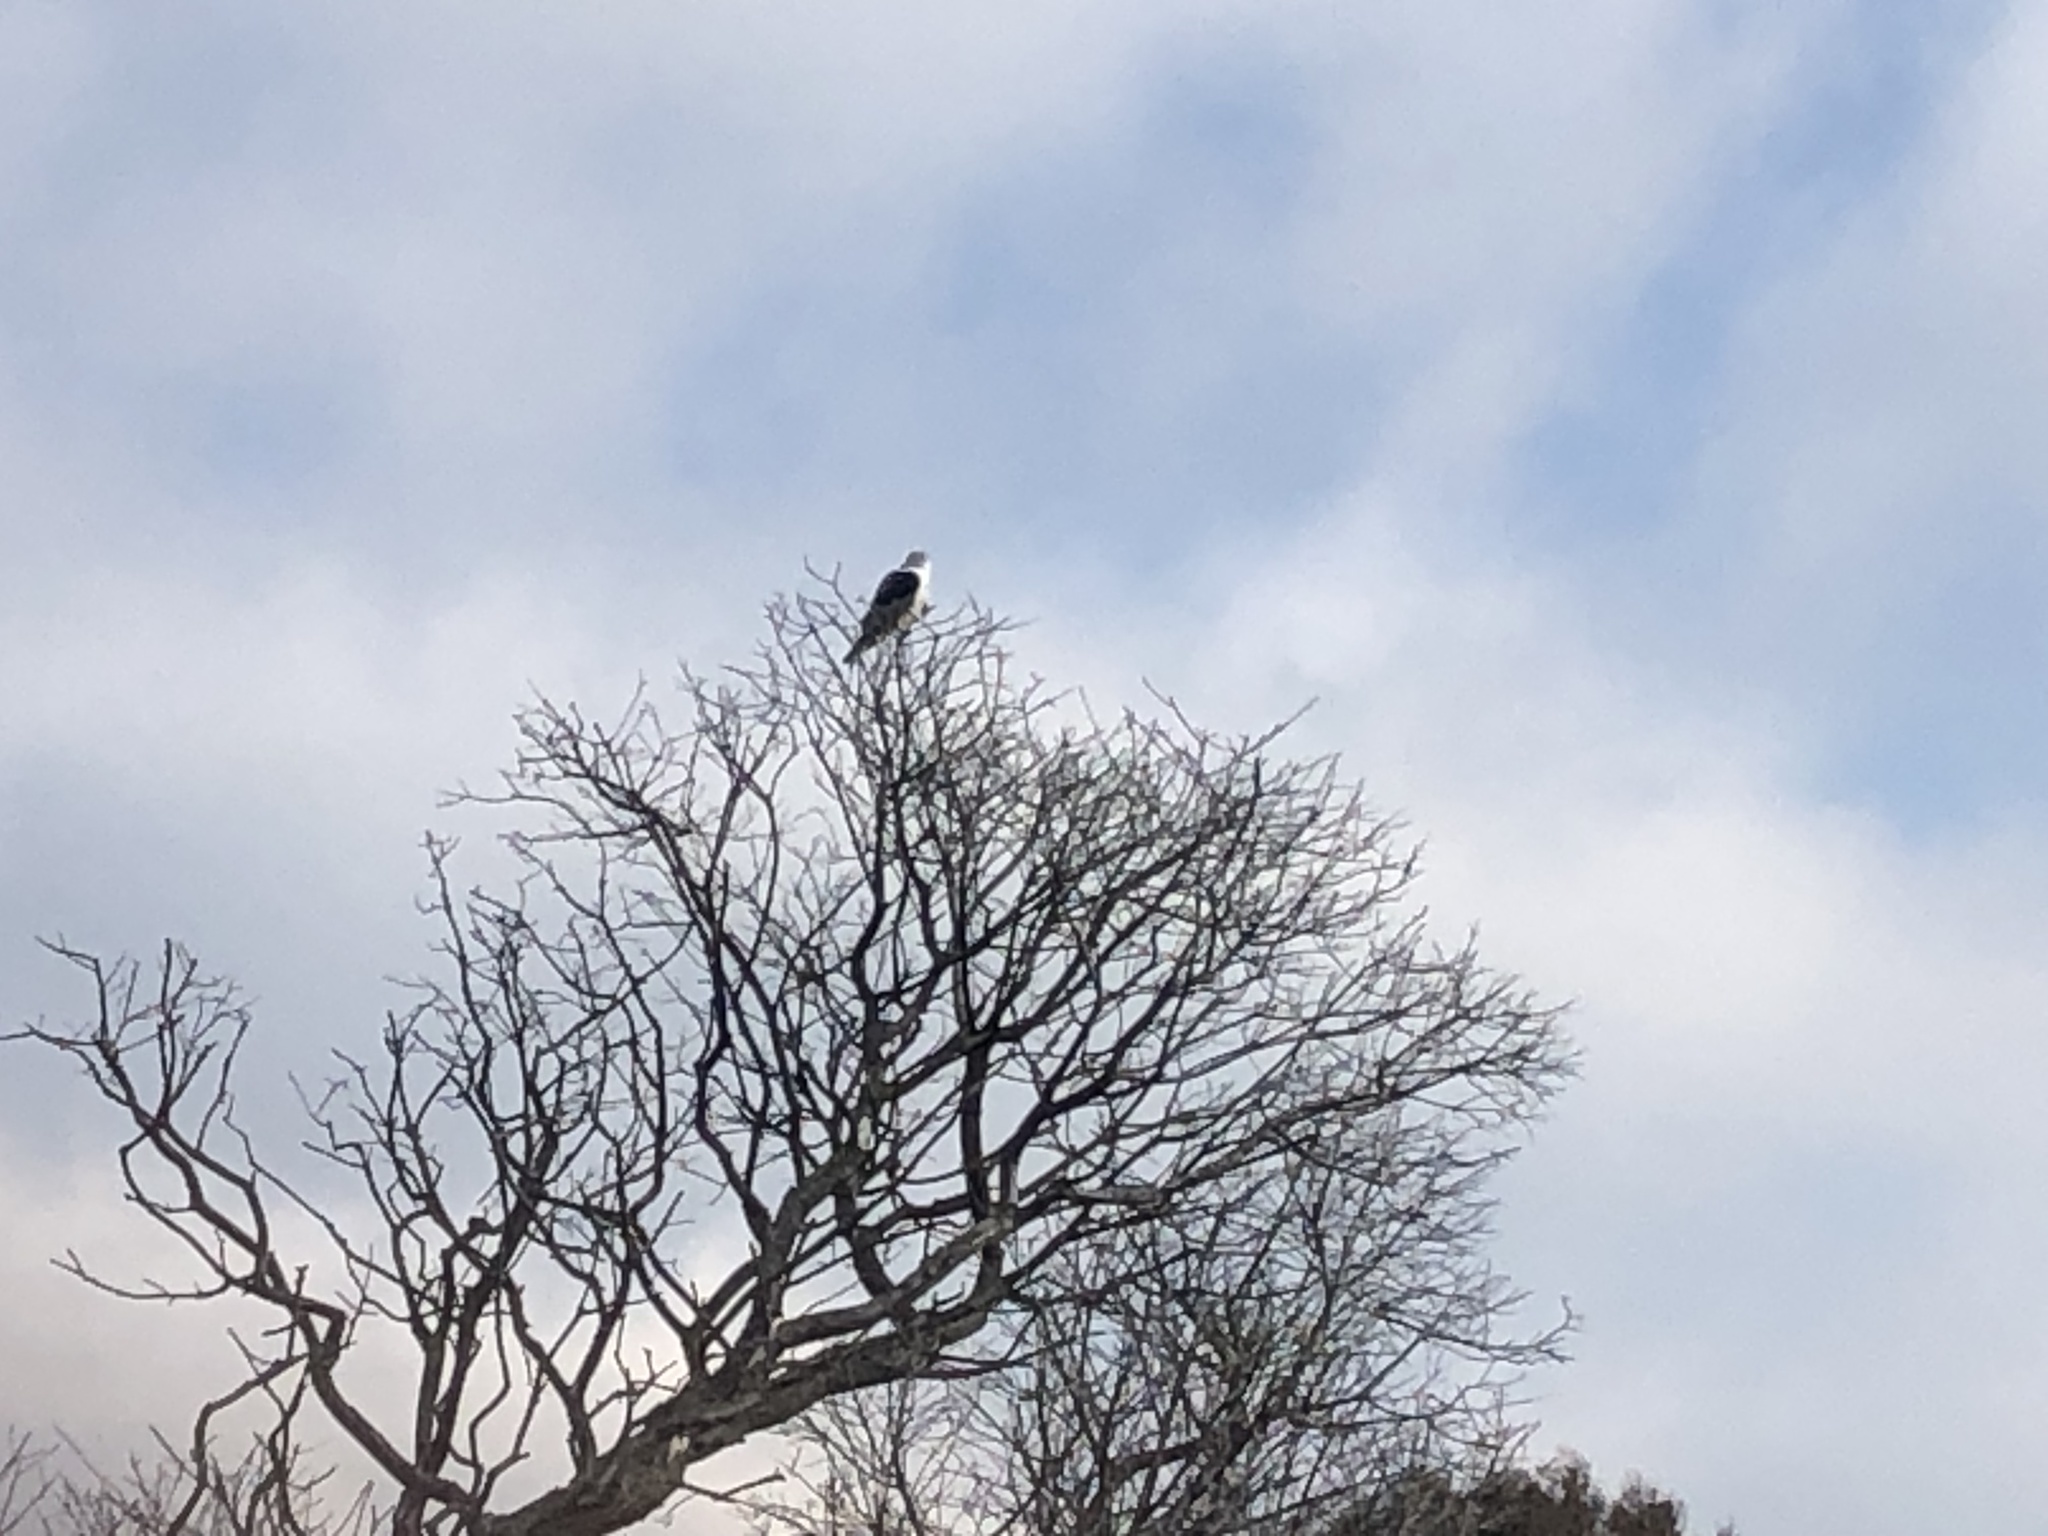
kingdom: Animalia
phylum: Chordata
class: Aves
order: Accipitriformes
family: Accipitridae
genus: Elanus
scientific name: Elanus leucurus
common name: White-tailed kite
